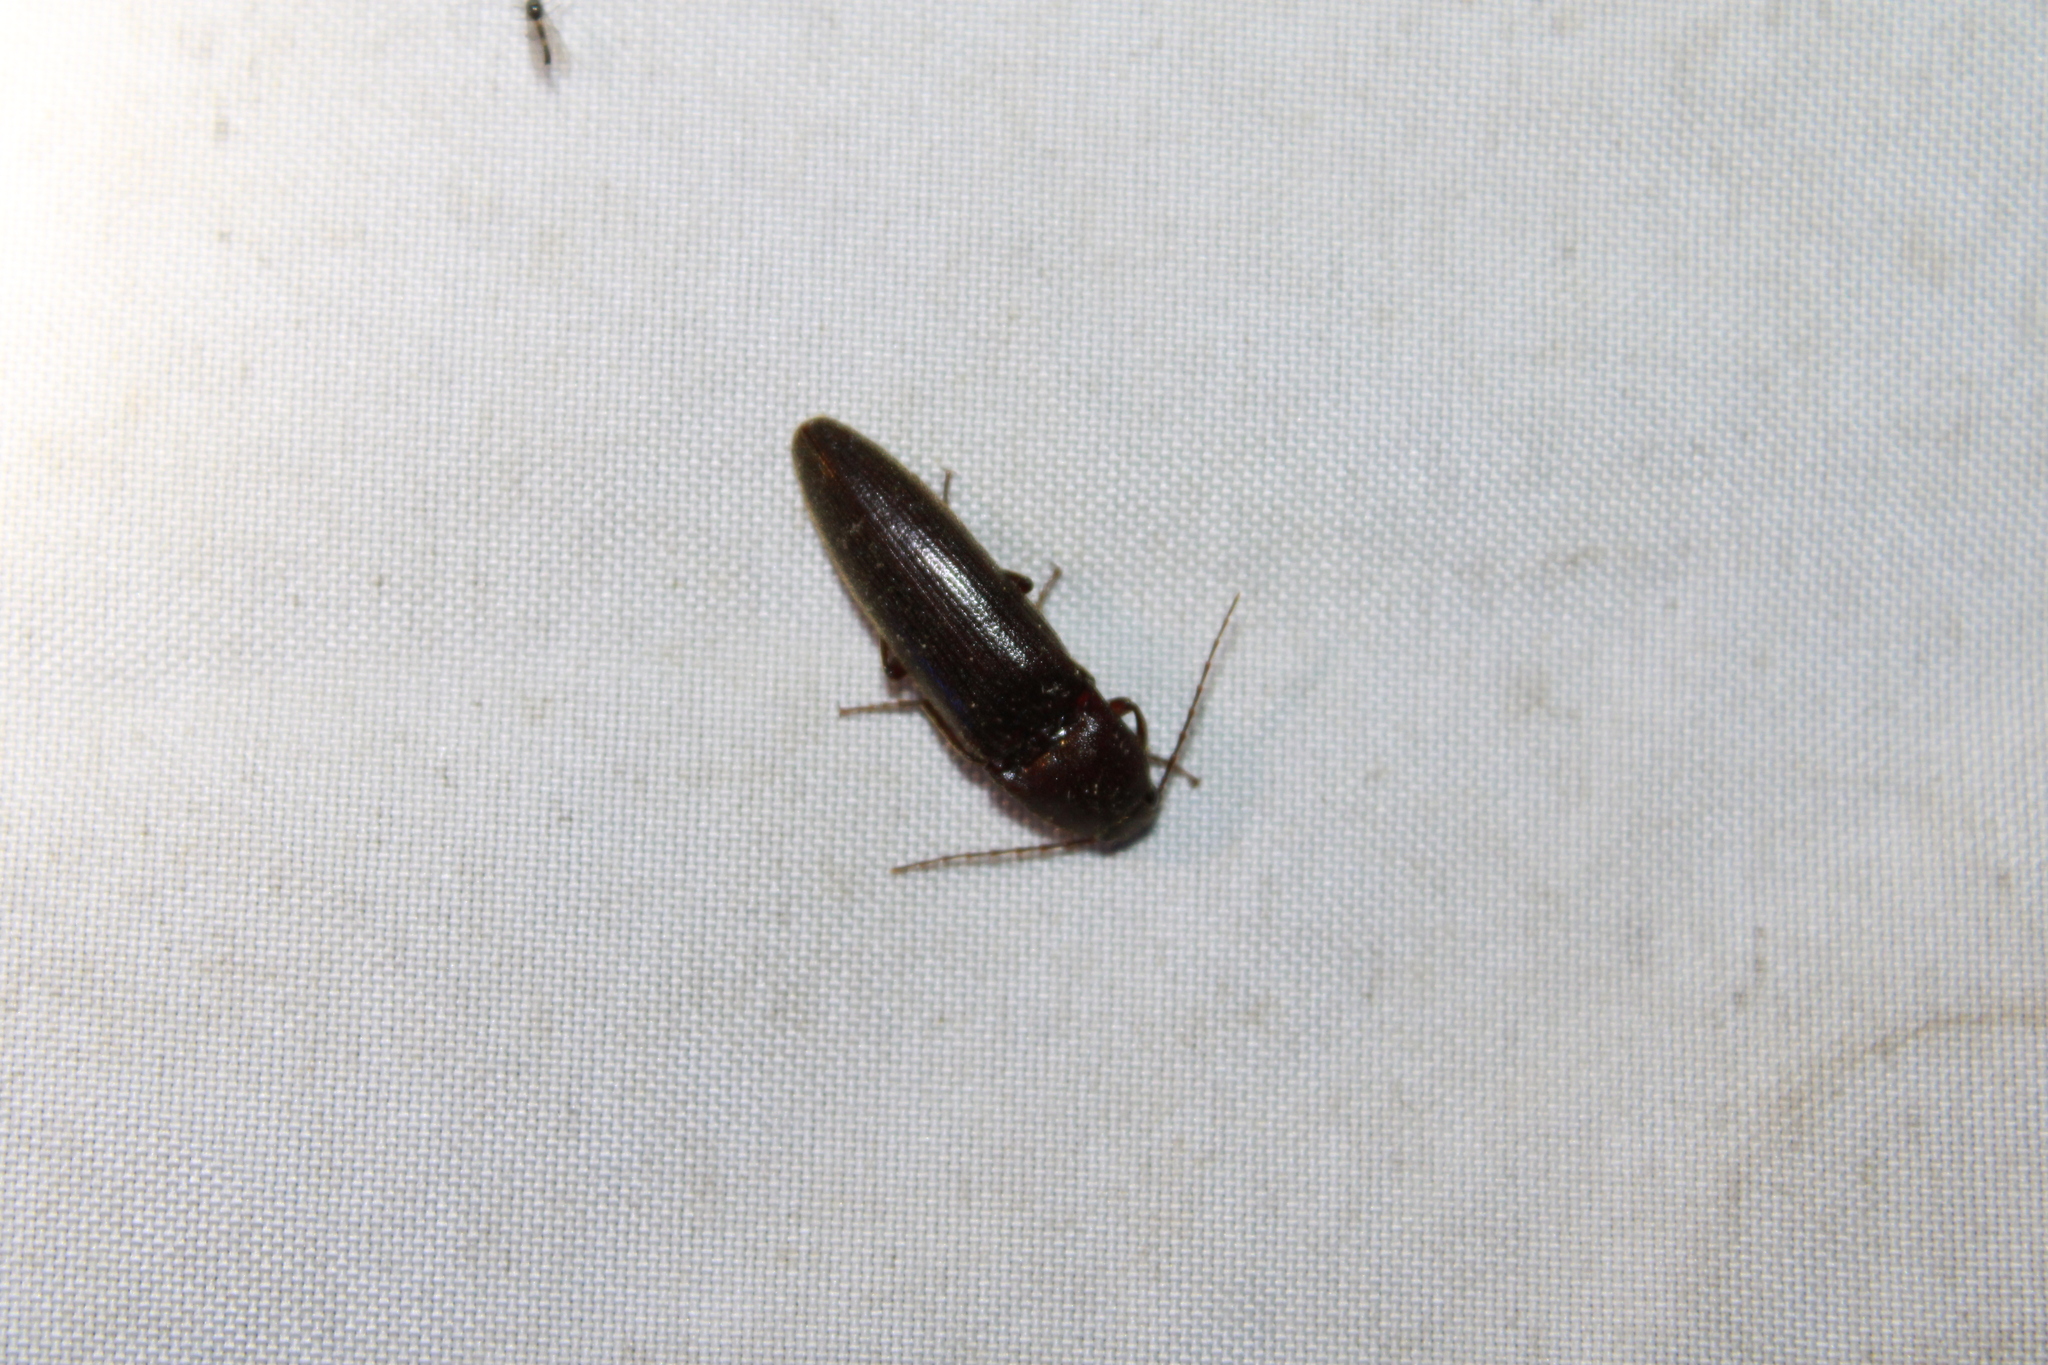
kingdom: Animalia
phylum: Arthropoda
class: Insecta
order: Coleoptera
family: Elateridae
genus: Melanotus
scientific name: Melanotus castanipes
